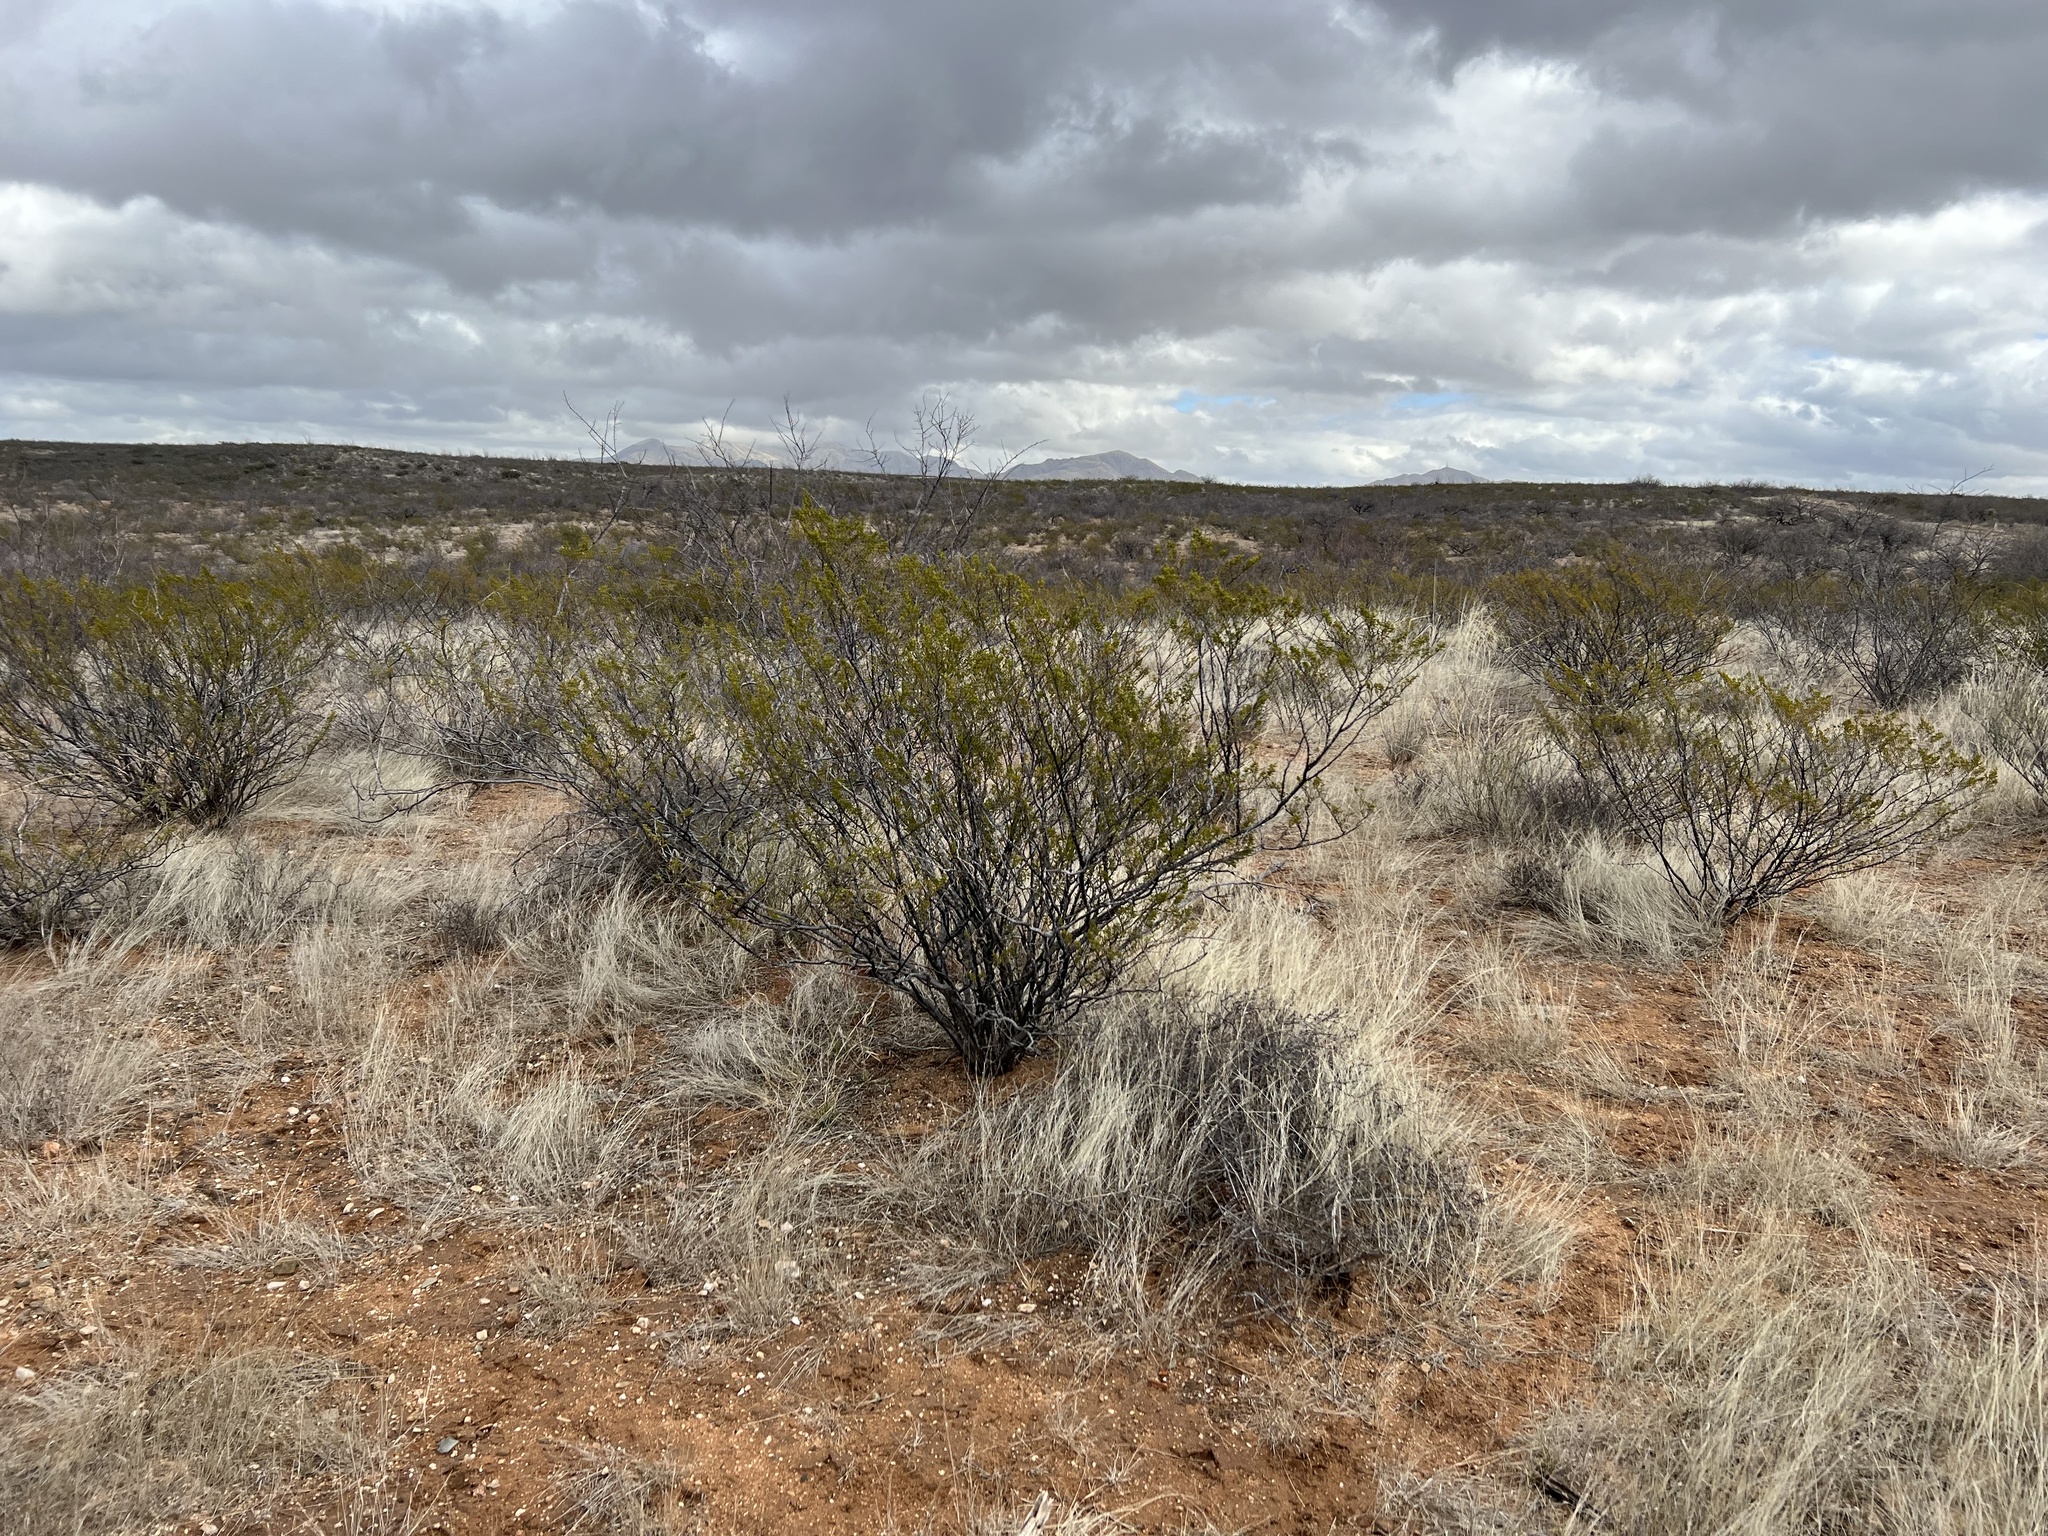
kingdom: Plantae
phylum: Tracheophyta
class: Magnoliopsida
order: Zygophyllales
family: Zygophyllaceae
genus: Larrea
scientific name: Larrea tridentata
